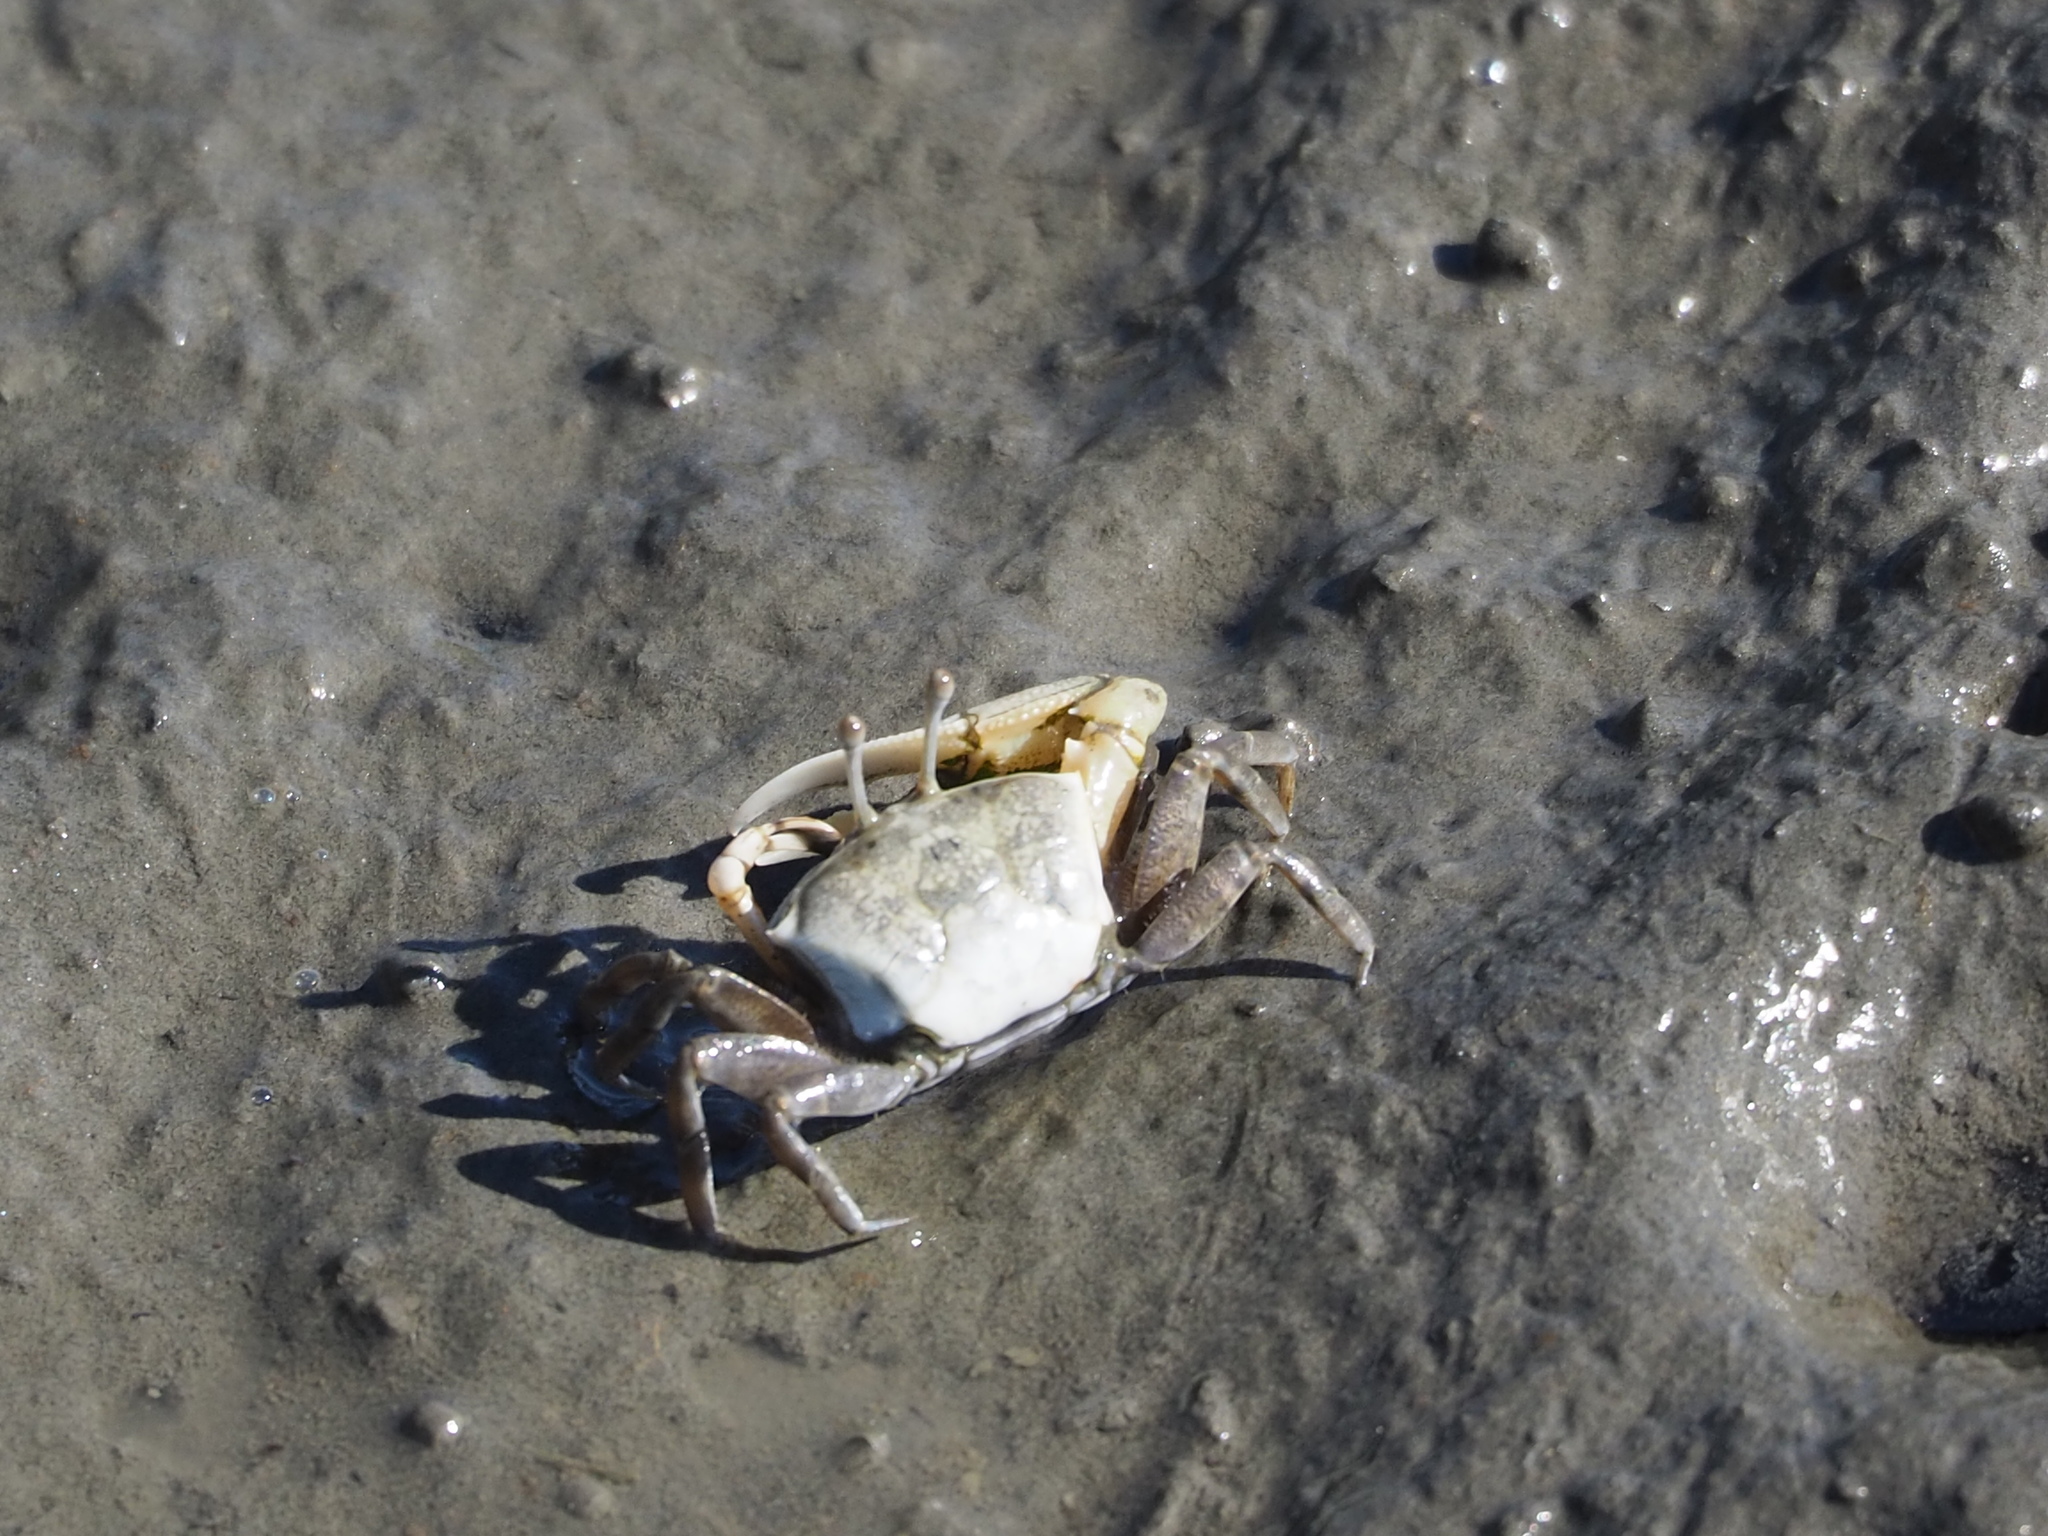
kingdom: Animalia
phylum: Arthropoda
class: Malacostraca
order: Decapoda
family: Ocypodidae
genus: Gelasimus
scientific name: Gelasimus borealis
